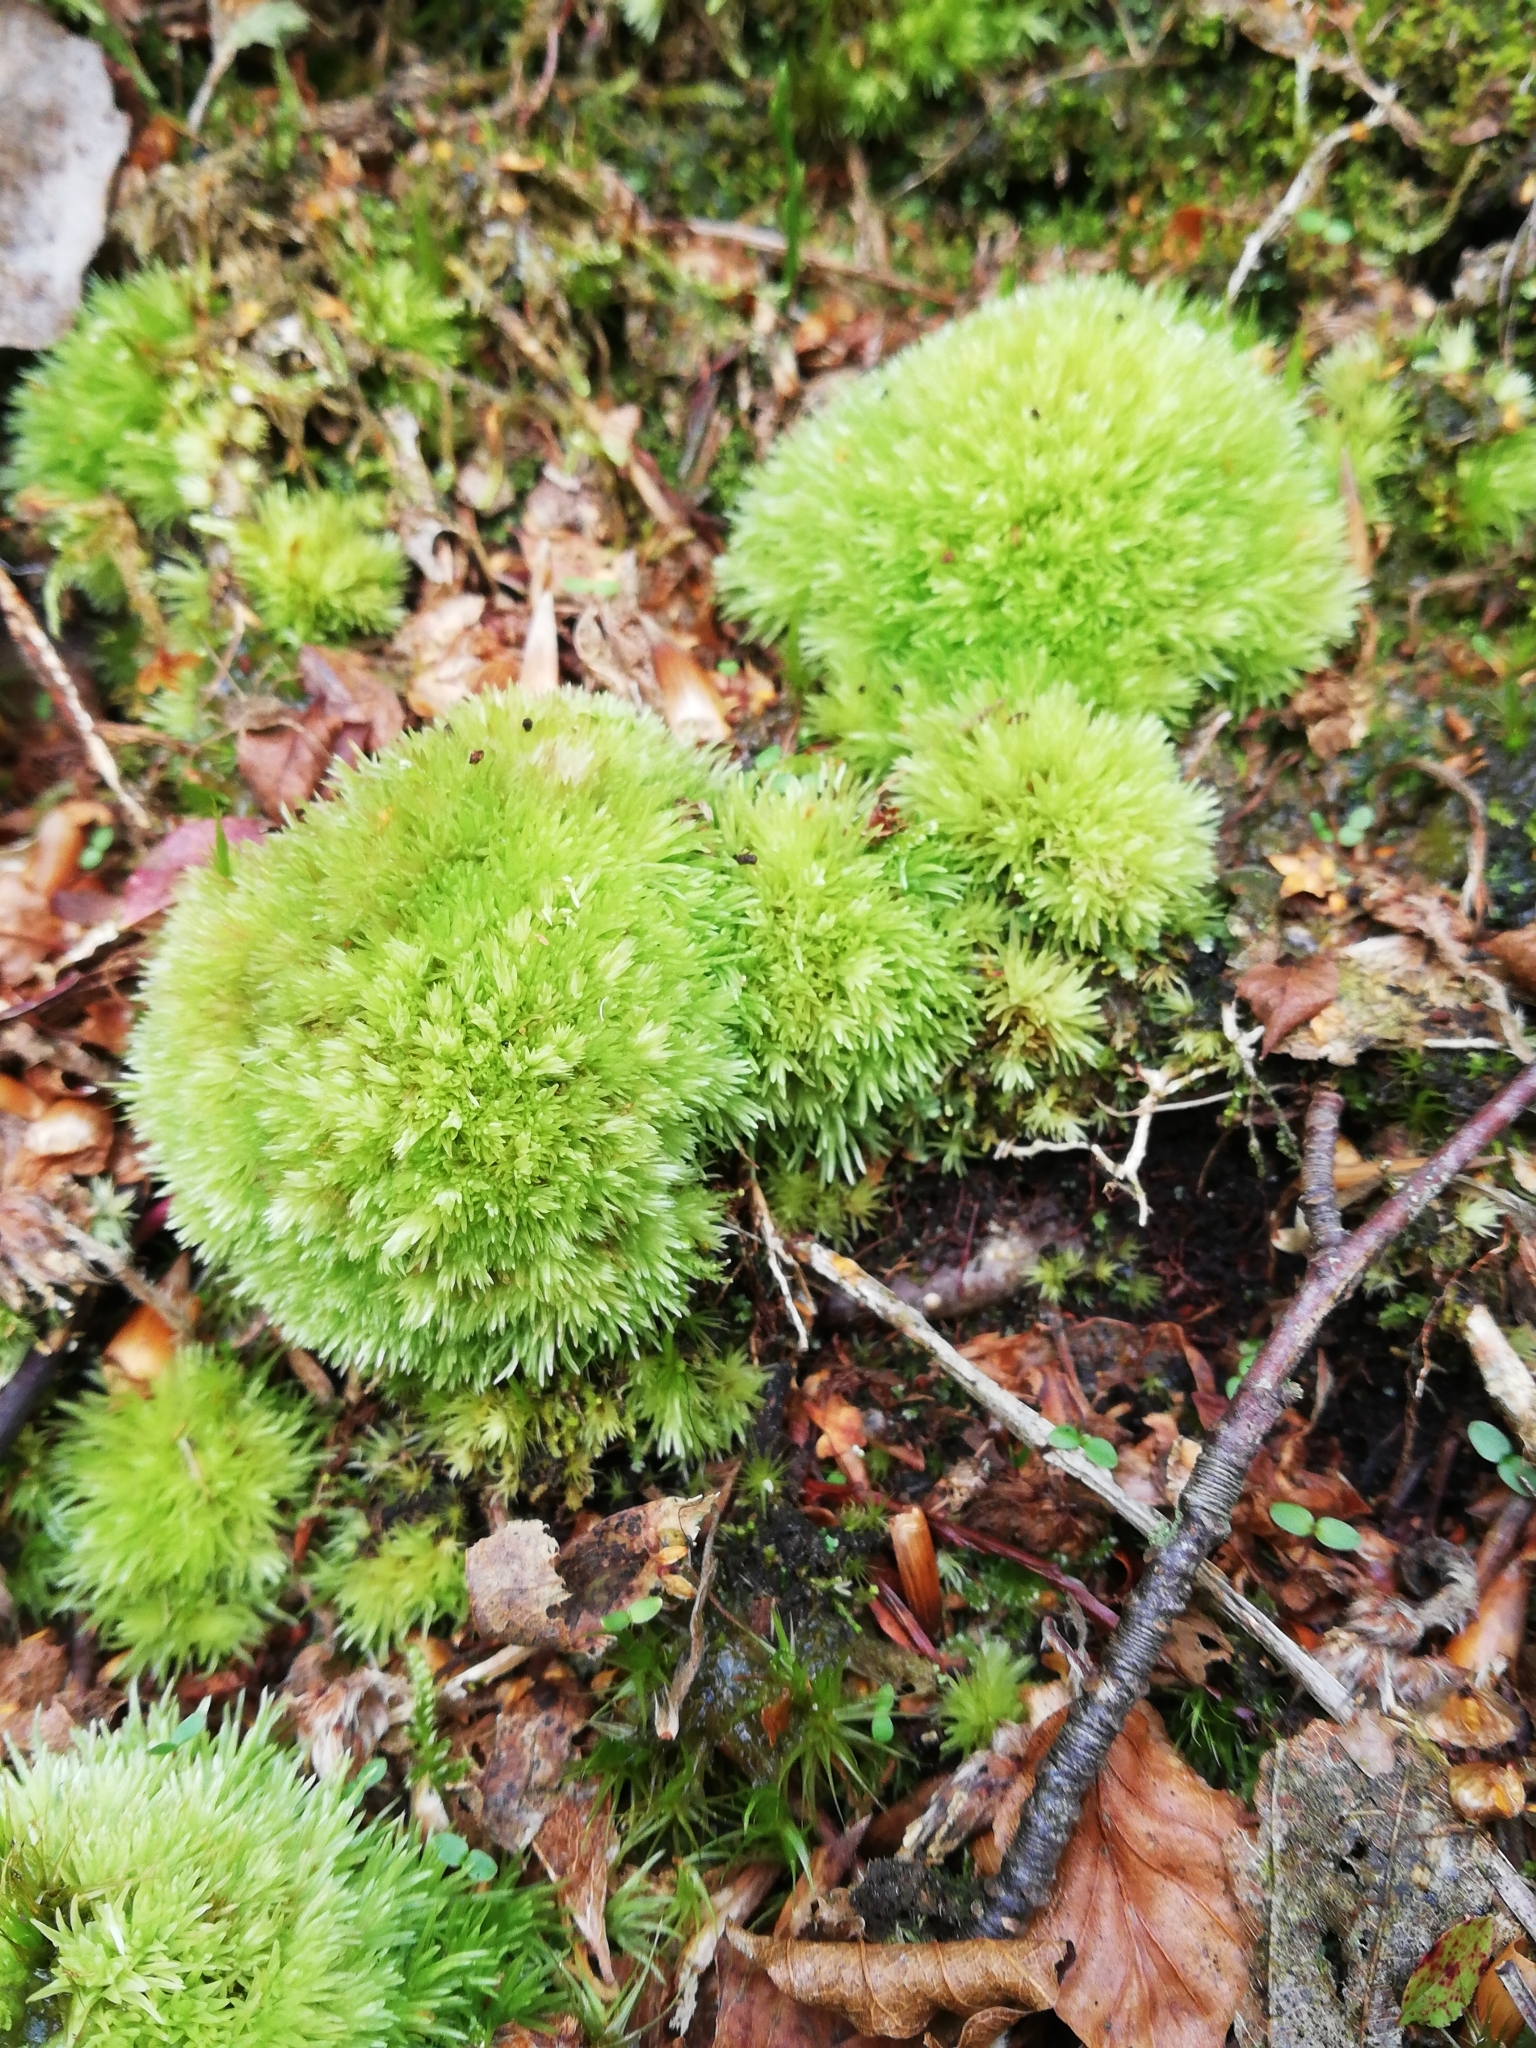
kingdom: Plantae
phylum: Bryophyta
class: Bryopsida
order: Dicranales
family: Leucobryaceae
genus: Leucobryum
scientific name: Leucobryum glaucum
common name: Large white-moss
